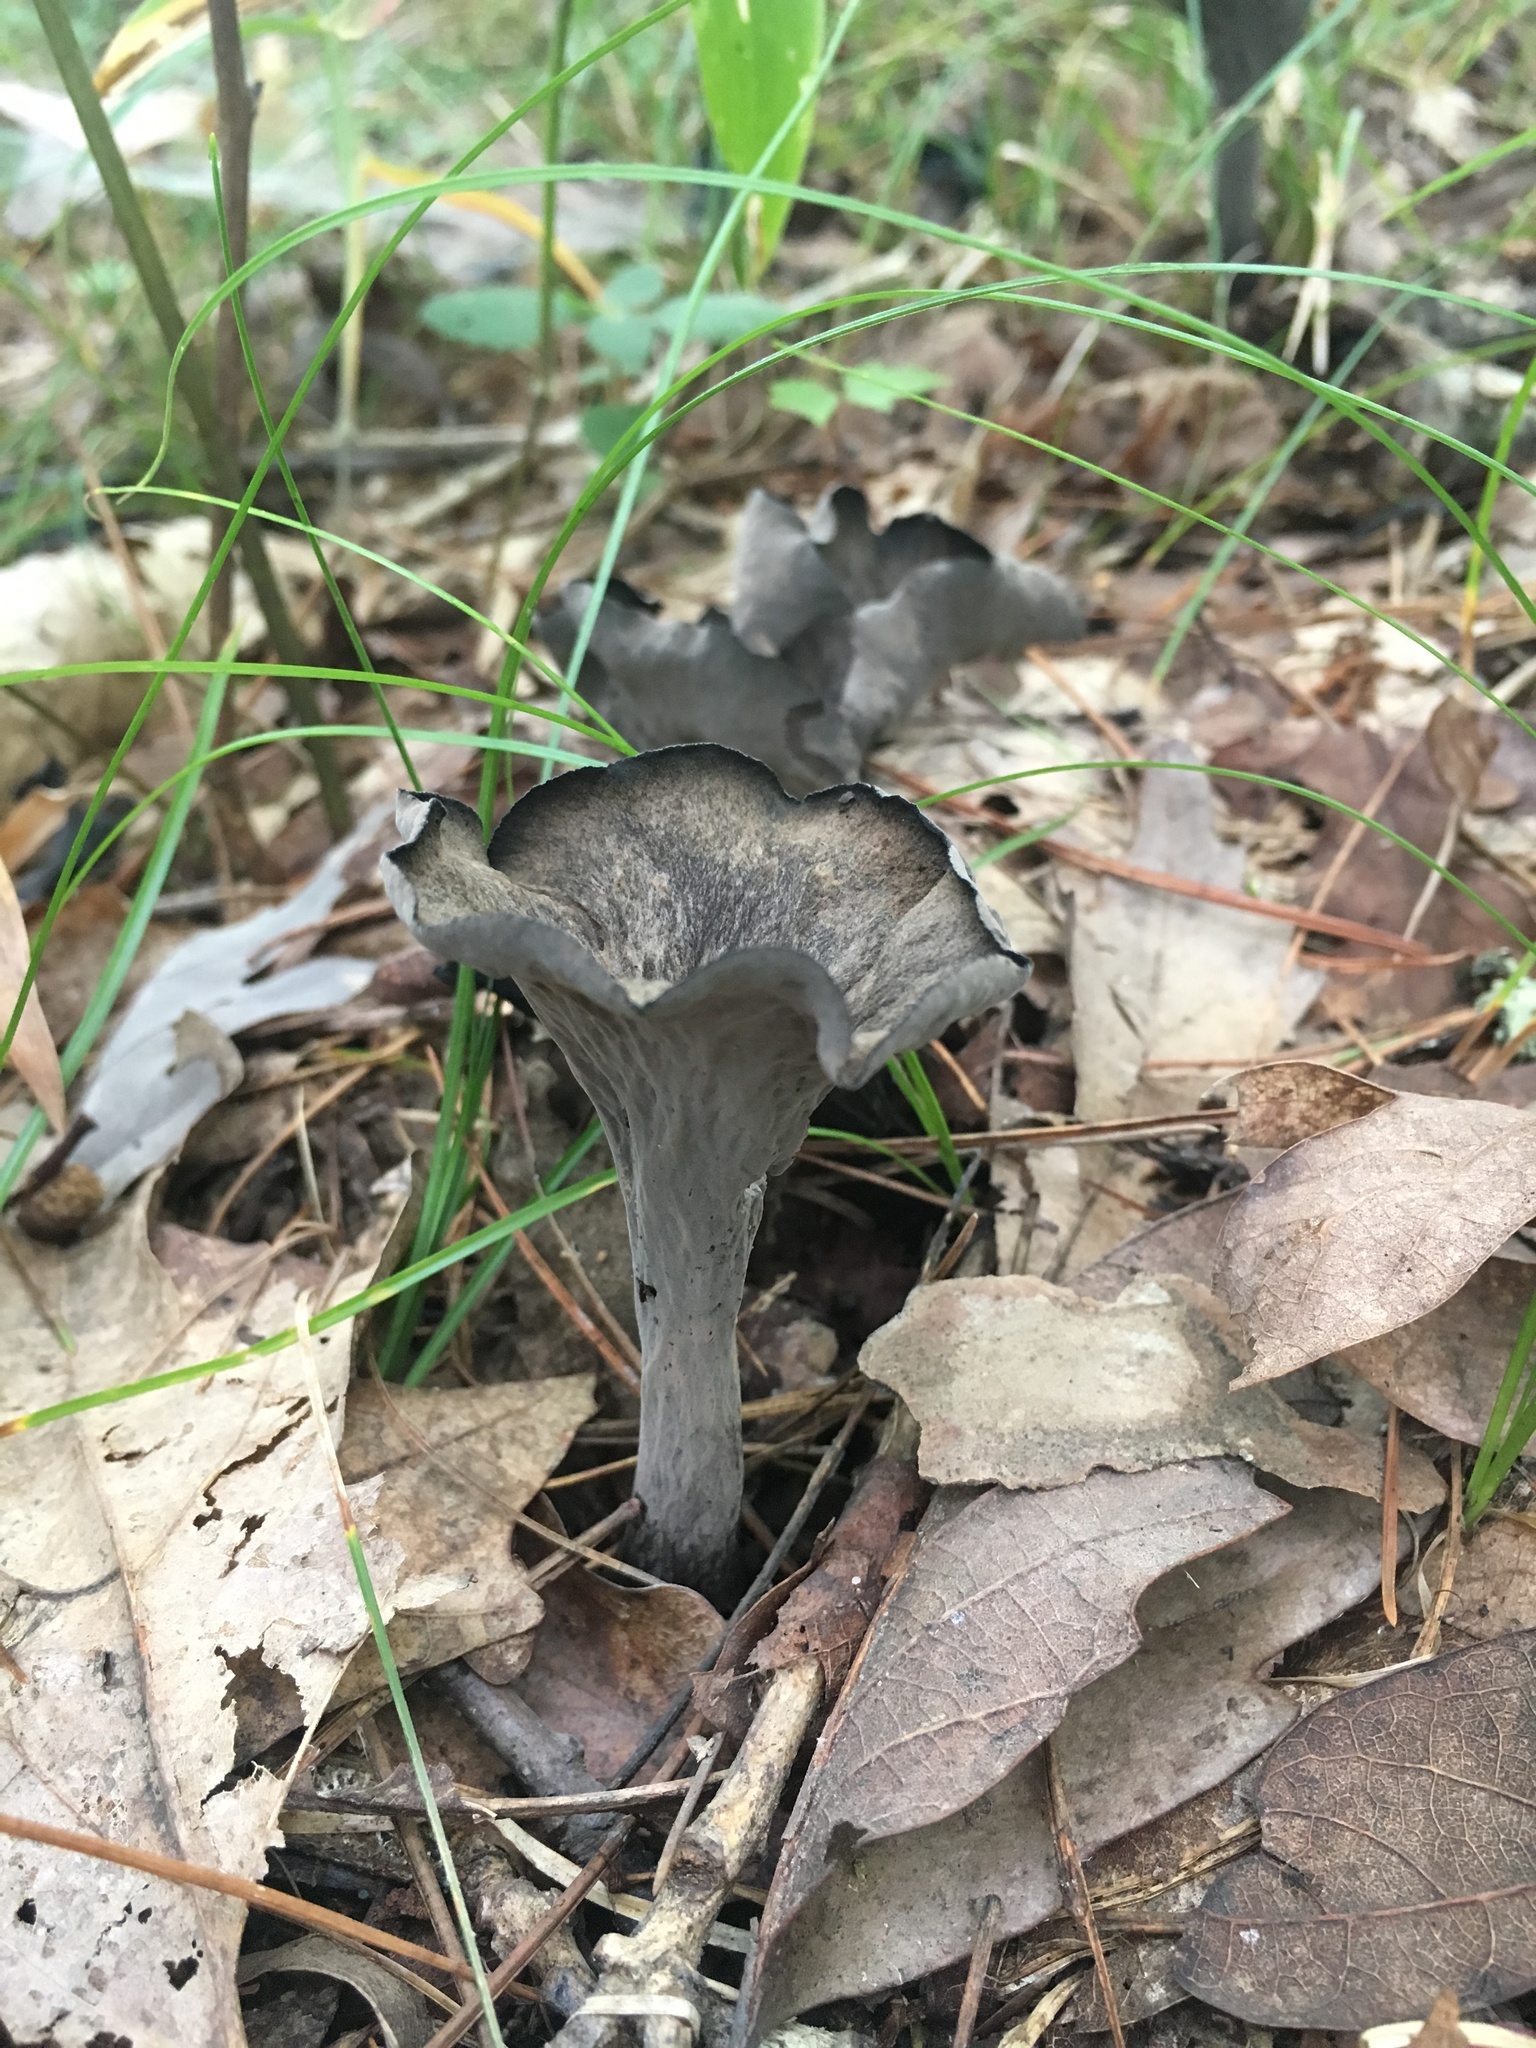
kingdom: Fungi
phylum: Basidiomycota
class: Agaricomycetes
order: Cantharellales
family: Hydnaceae
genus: Craterellus
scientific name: Craterellus cornucopioides
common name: Horn of plenty
